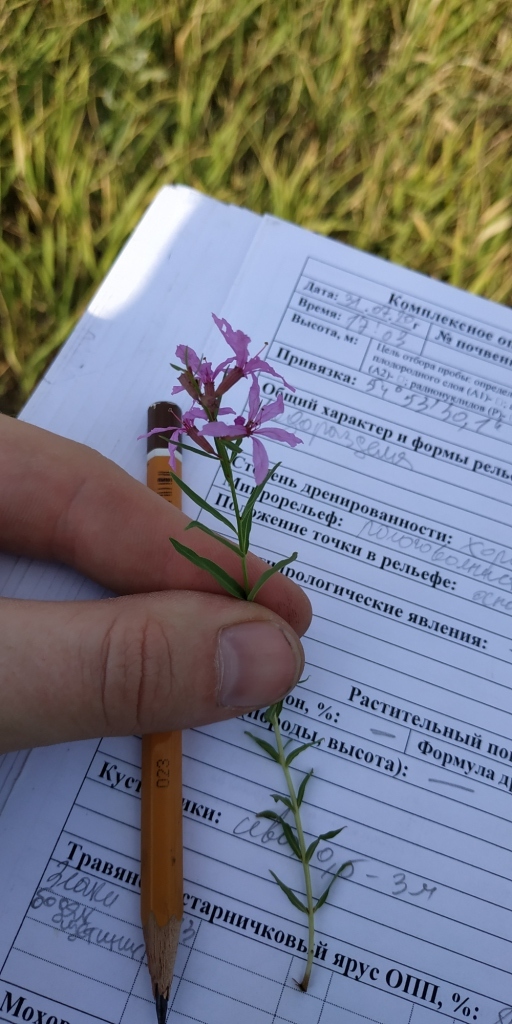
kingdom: Plantae
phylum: Tracheophyta
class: Magnoliopsida
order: Myrtales
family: Lythraceae
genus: Lythrum
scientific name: Lythrum salicaria
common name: Purple loosestrife
